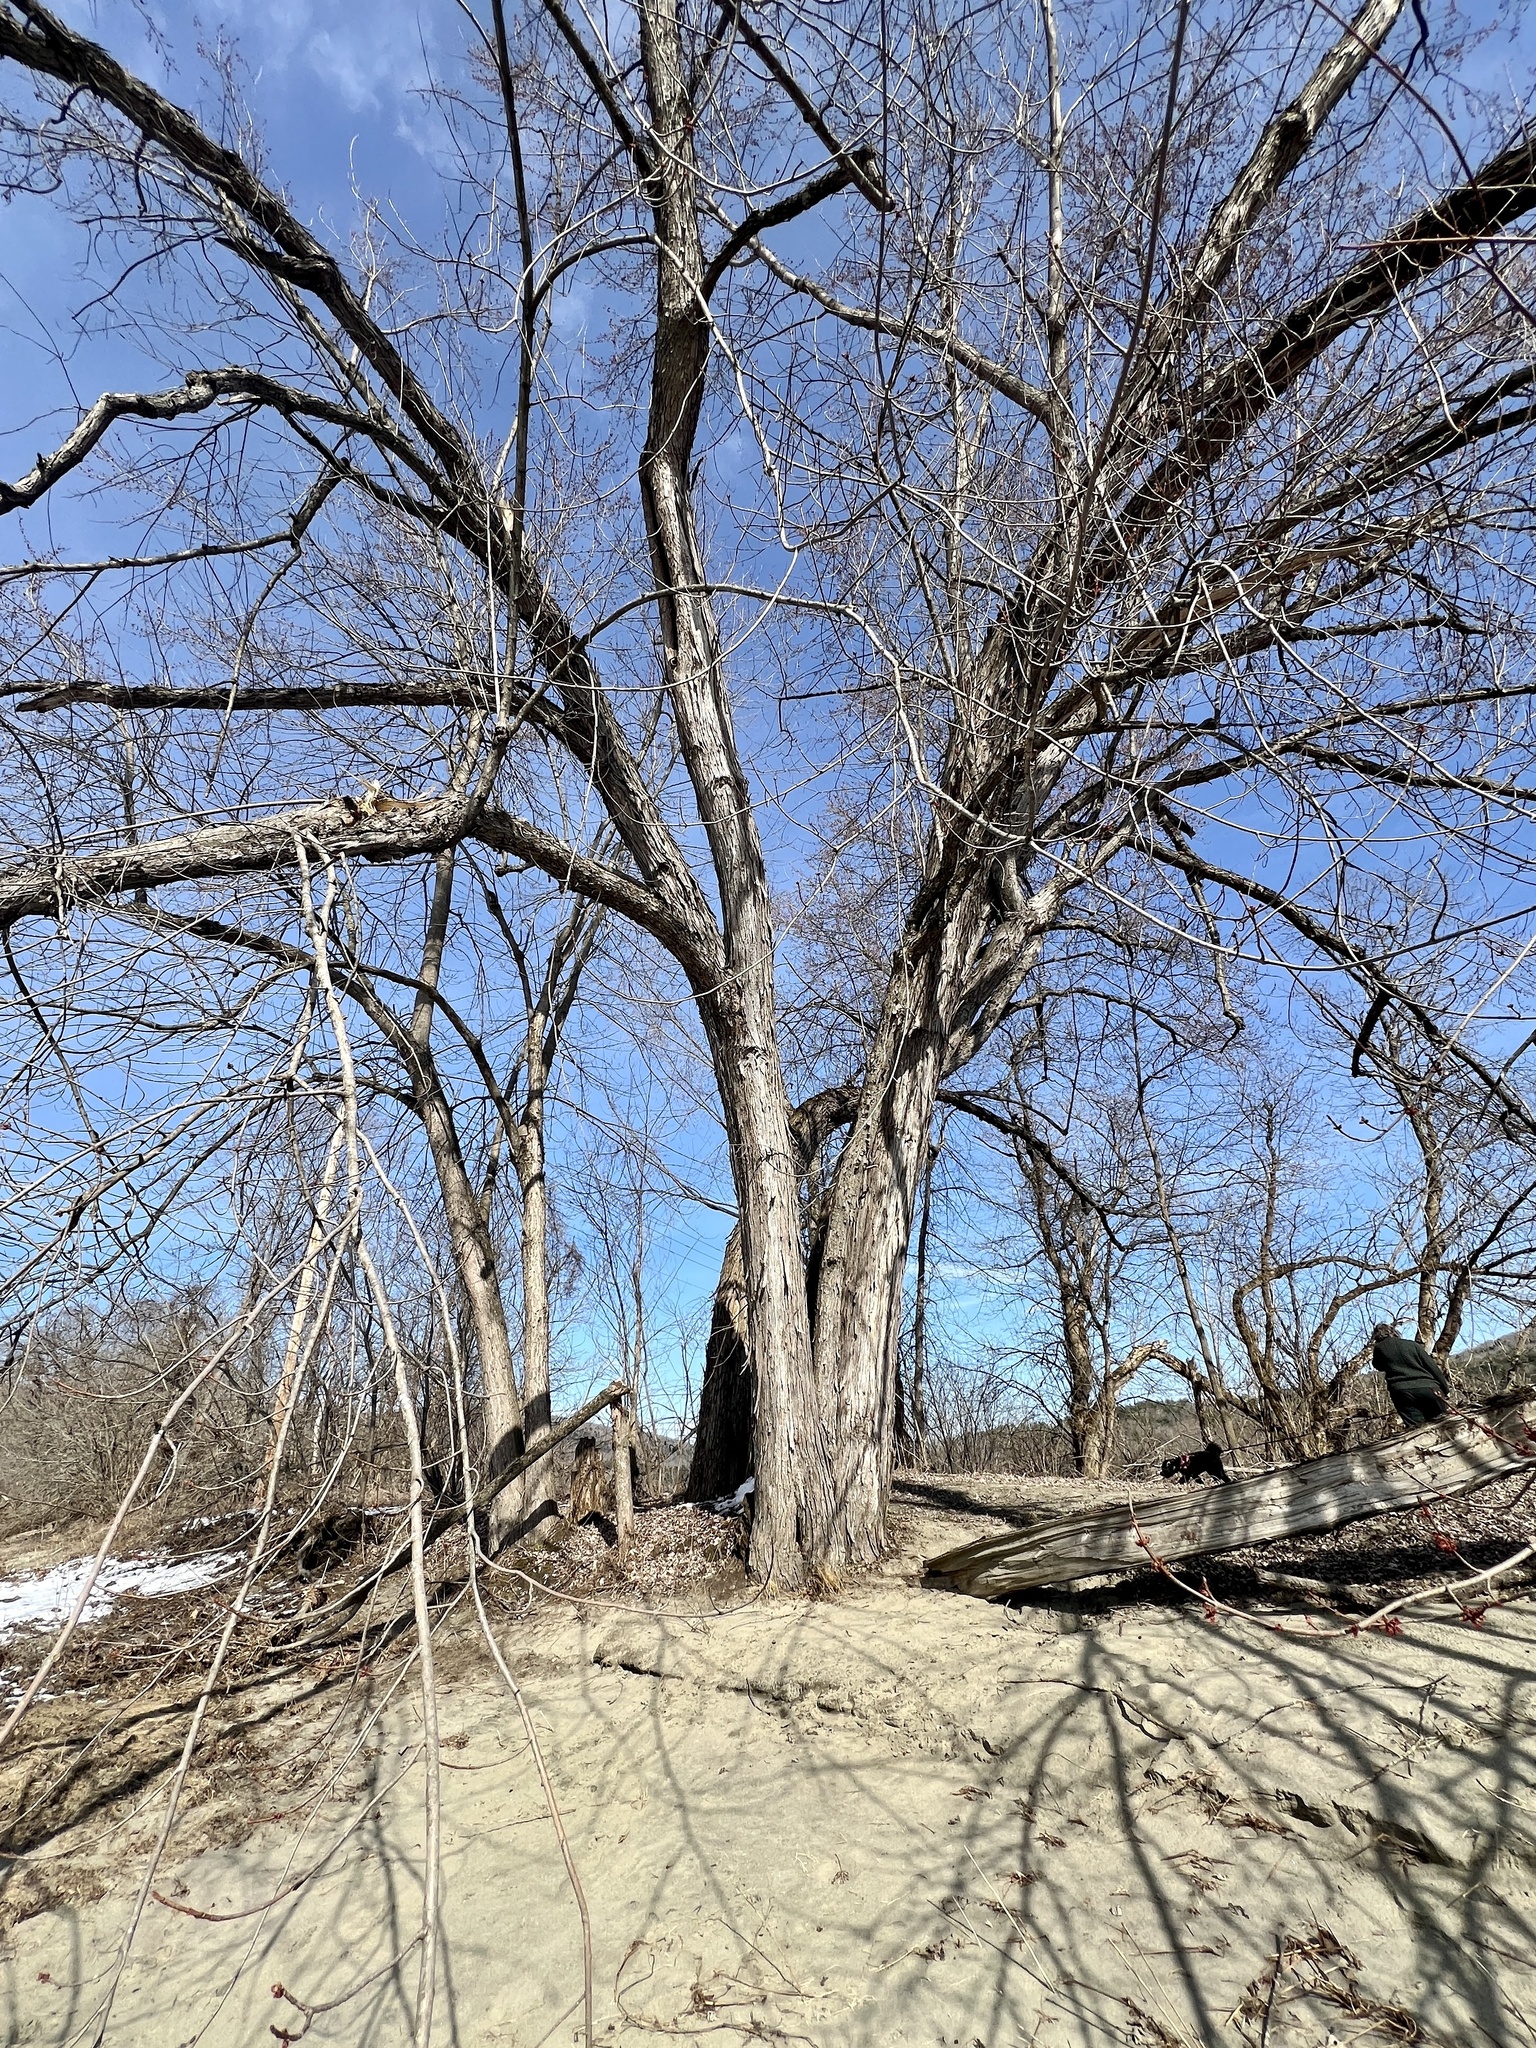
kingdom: Plantae
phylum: Tracheophyta
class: Magnoliopsida
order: Sapindales
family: Sapindaceae
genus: Acer
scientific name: Acer saccharinum
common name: Silver maple
